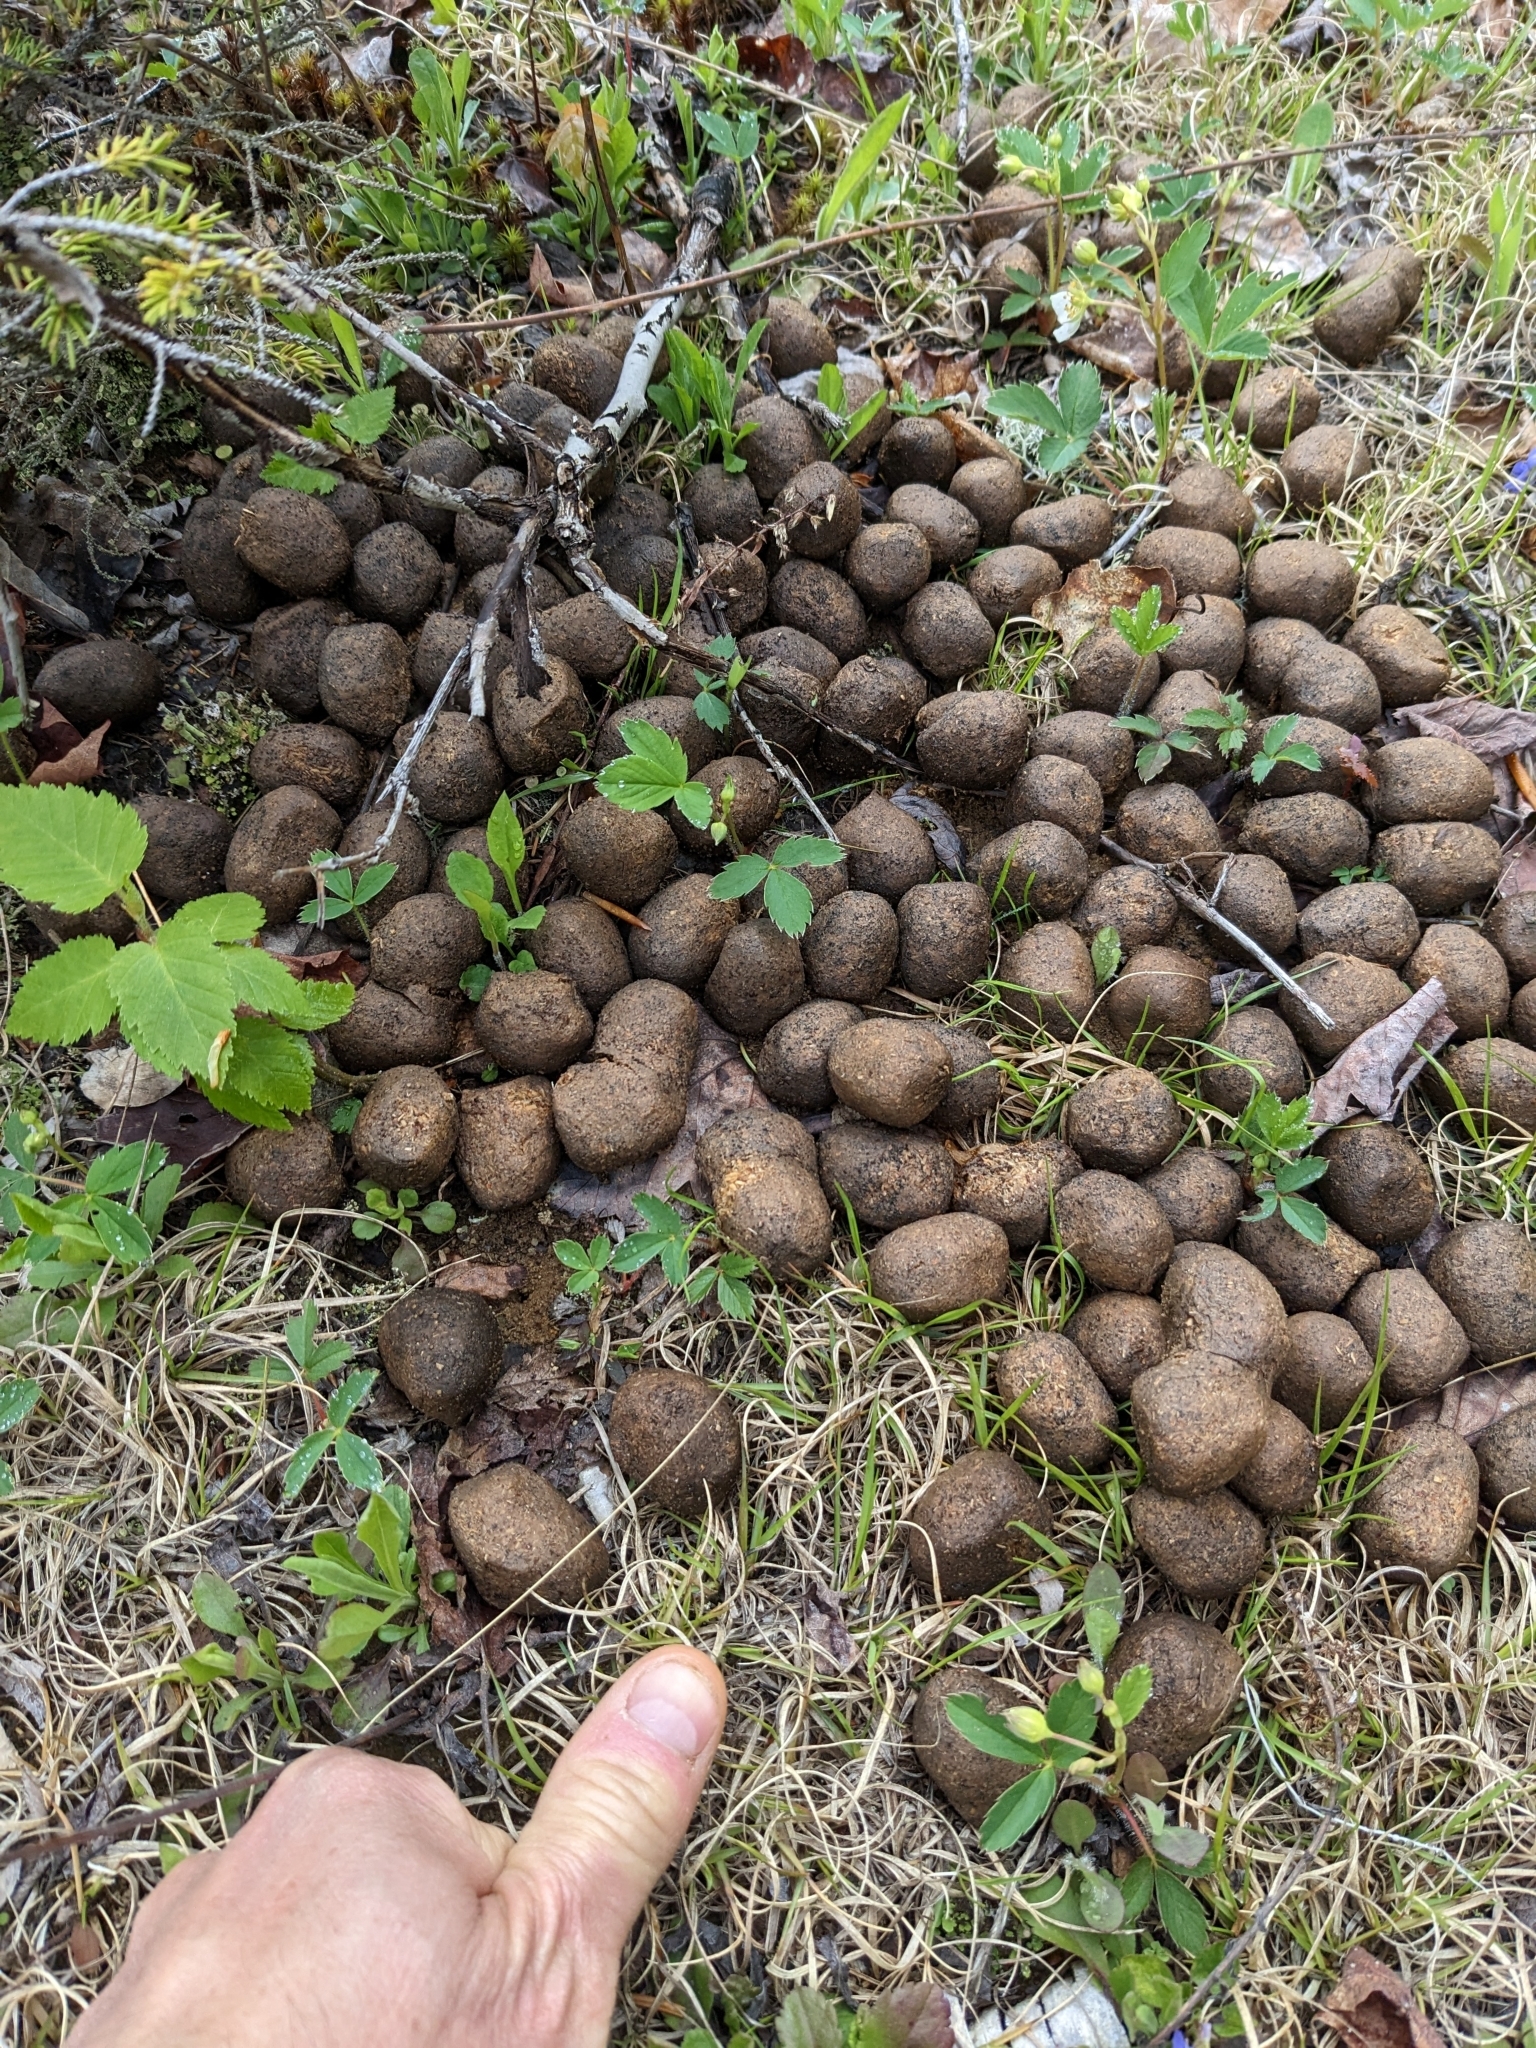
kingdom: Animalia
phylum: Chordata
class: Mammalia
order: Artiodactyla
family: Cervidae
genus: Alces
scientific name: Alces alces
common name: Moose
